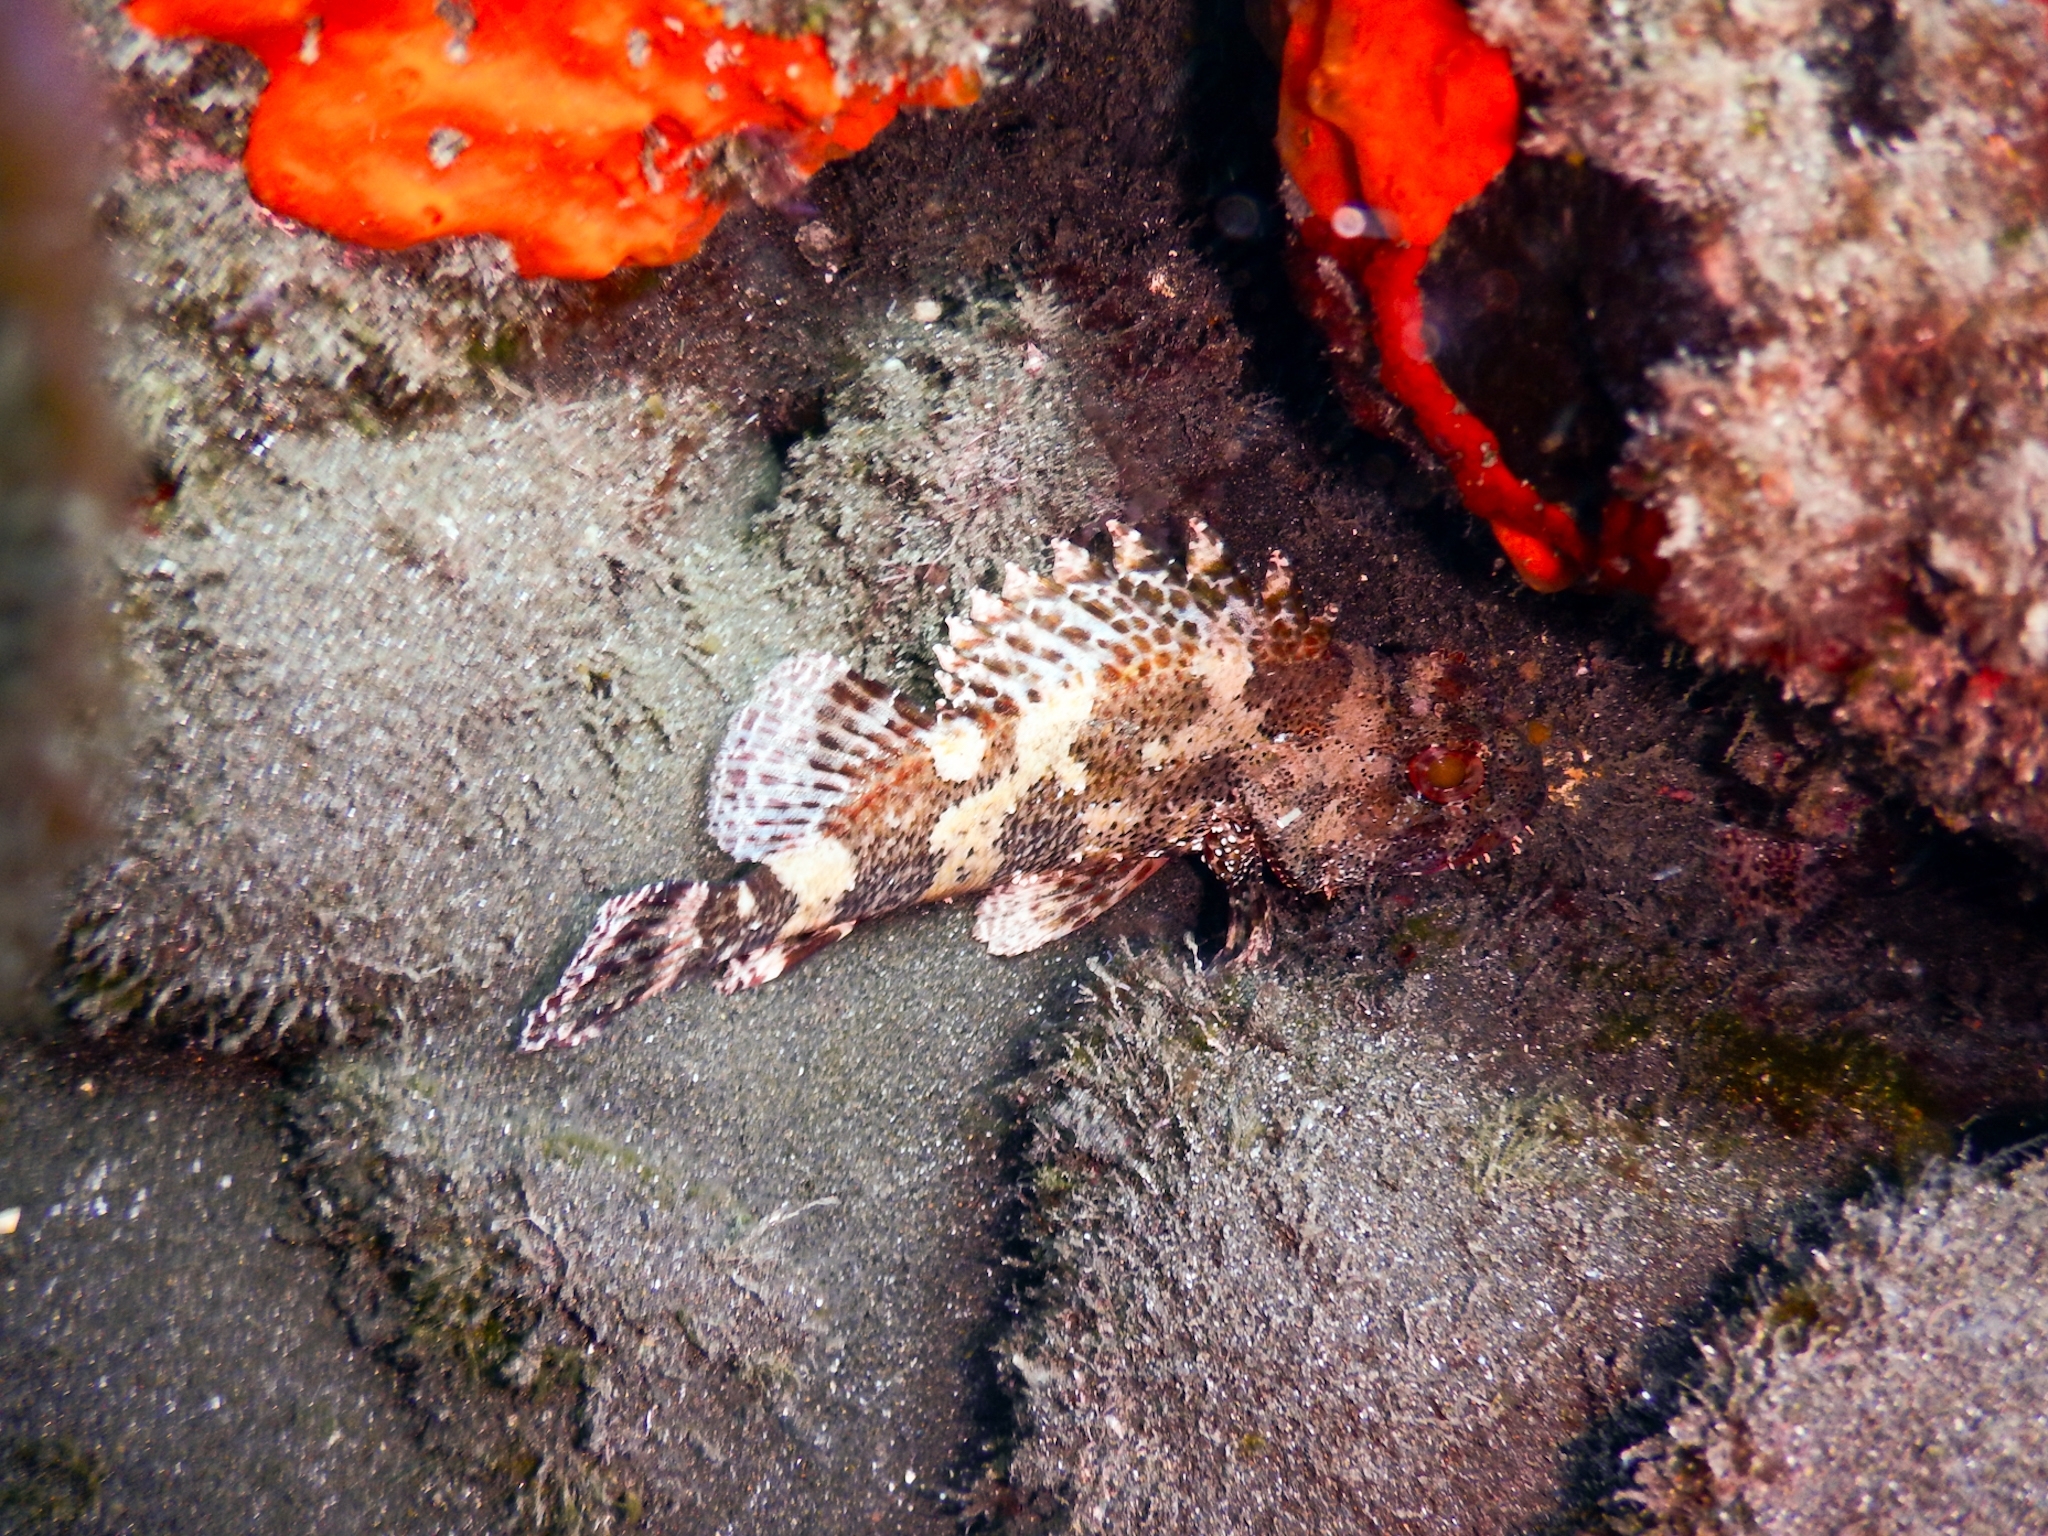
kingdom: Animalia
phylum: Chordata
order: Scorpaeniformes
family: Scorpaenidae
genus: Scorpaena
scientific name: Scorpaena maderensis
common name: Madeira rockfish
